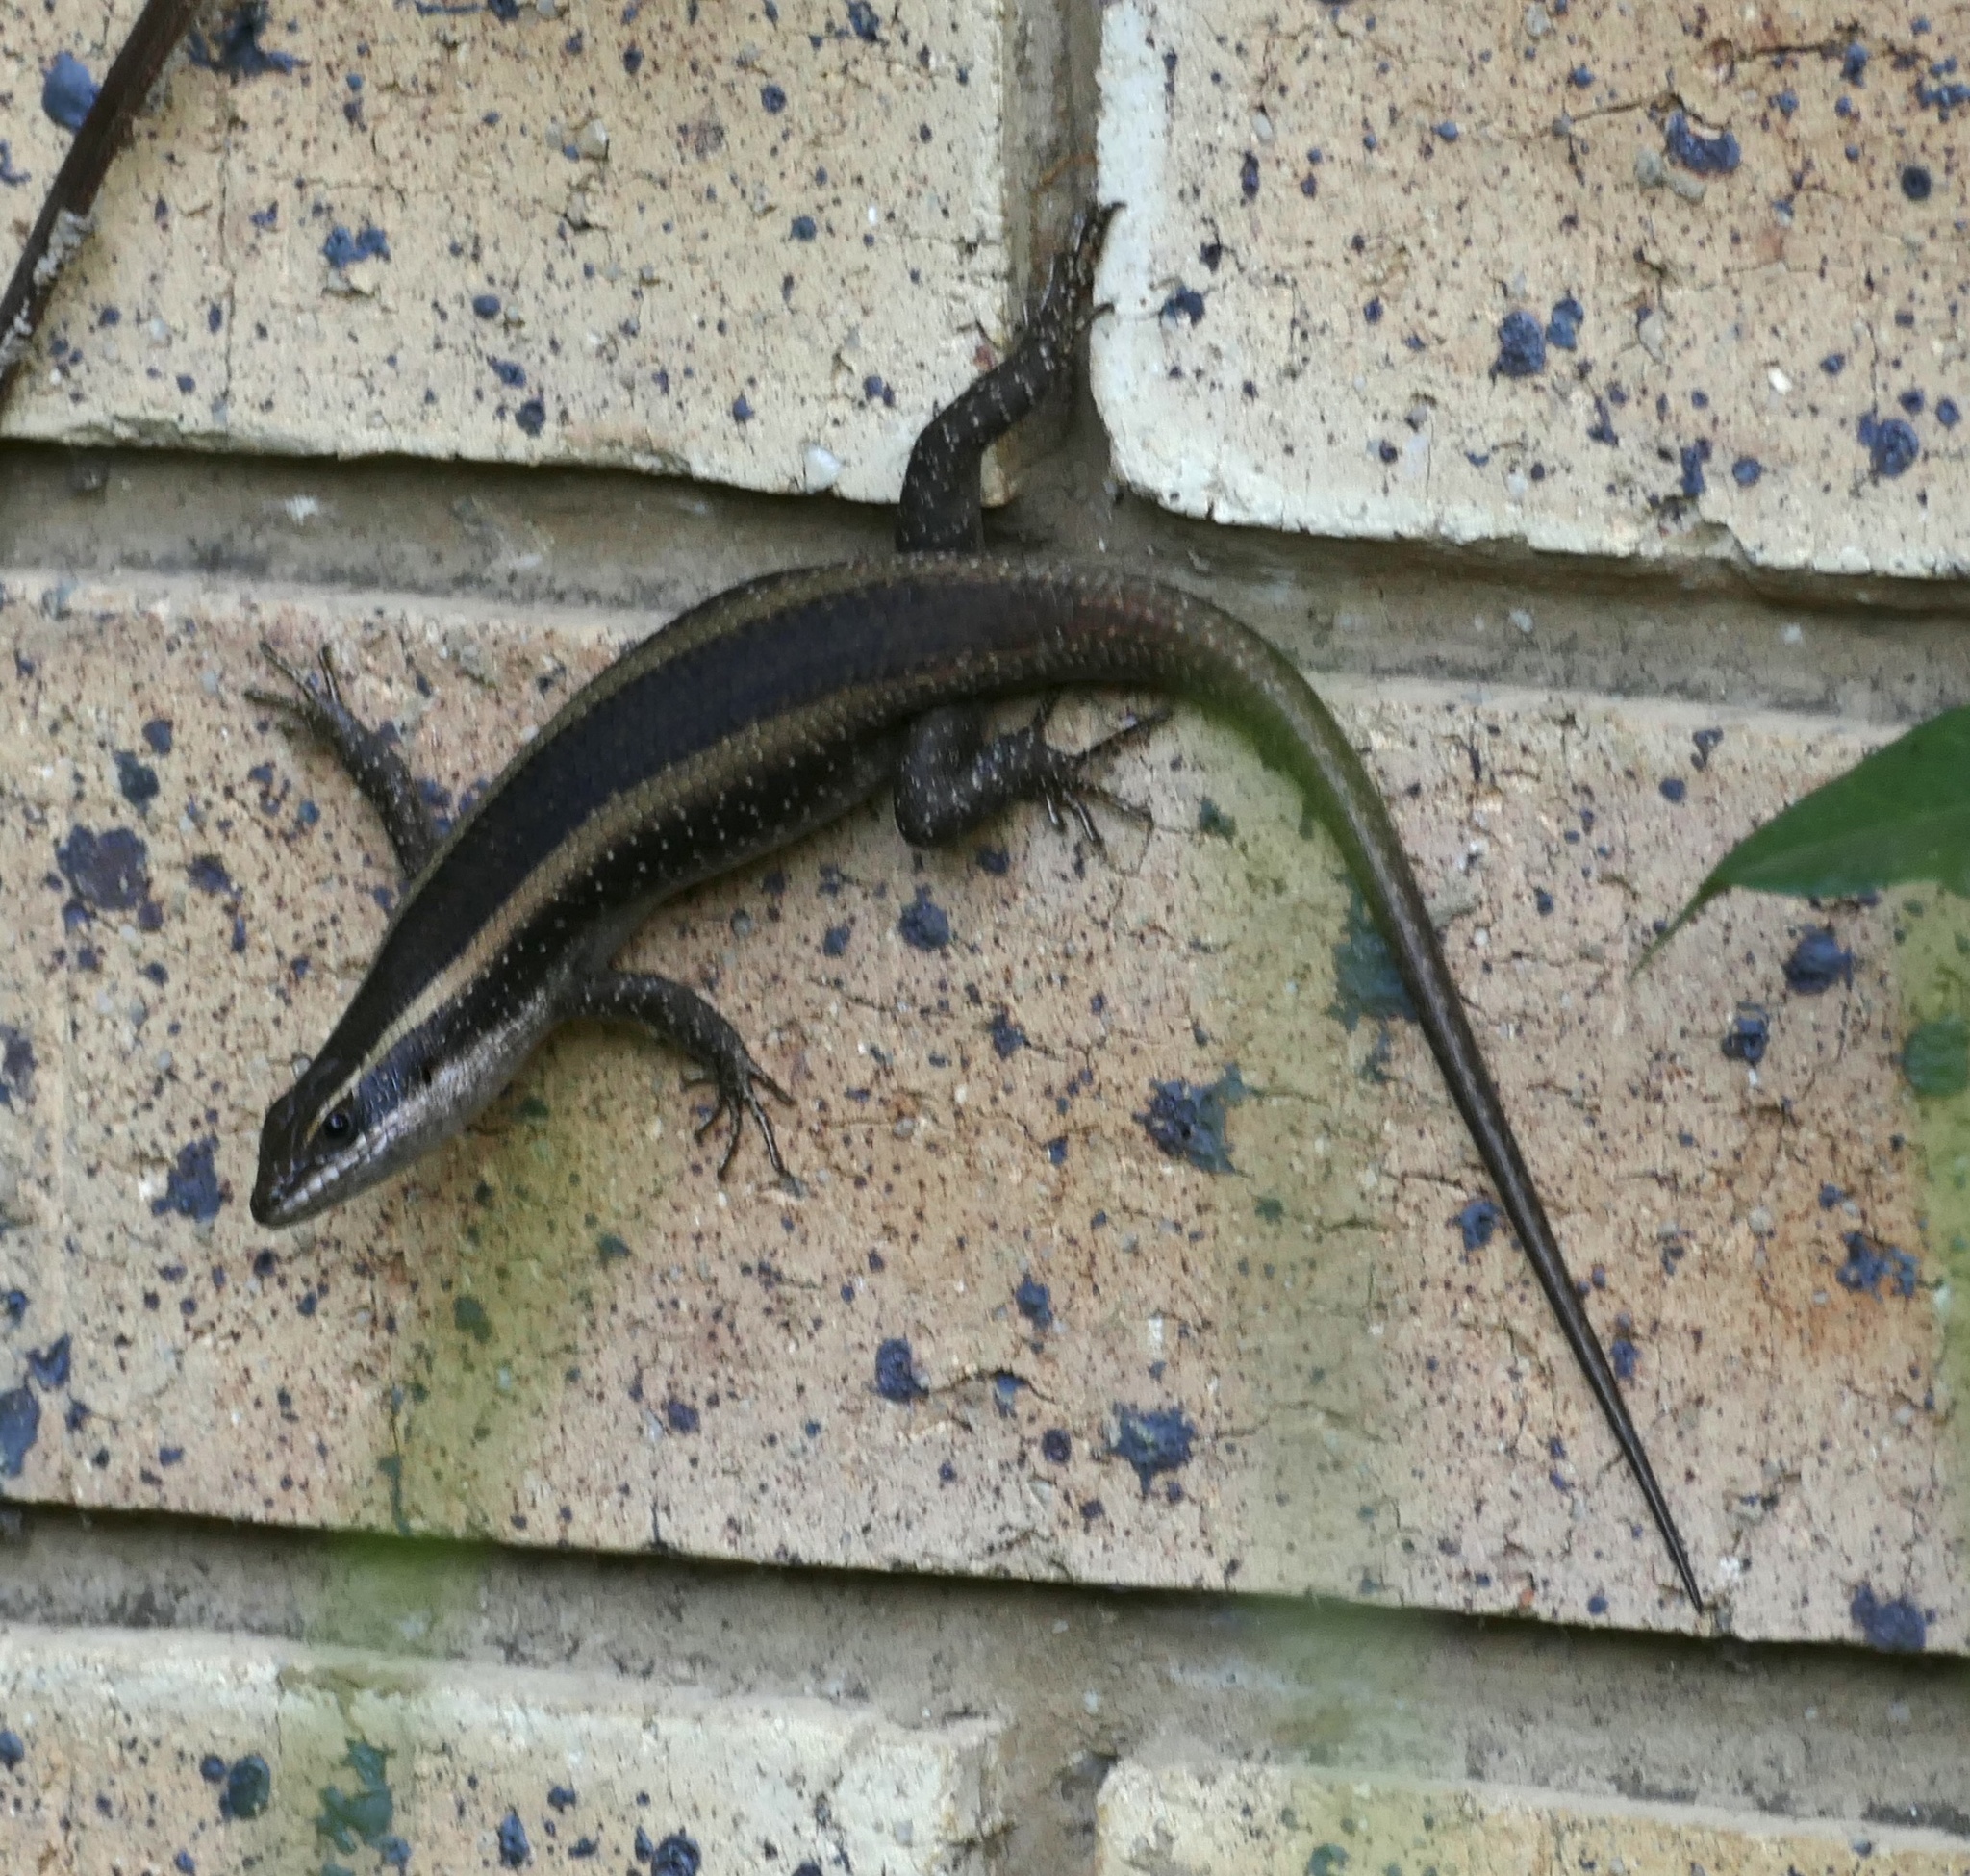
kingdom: Animalia
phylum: Chordata
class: Squamata
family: Scincidae
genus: Trachylepis
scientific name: Trachylepis striata
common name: African striped mabuya
